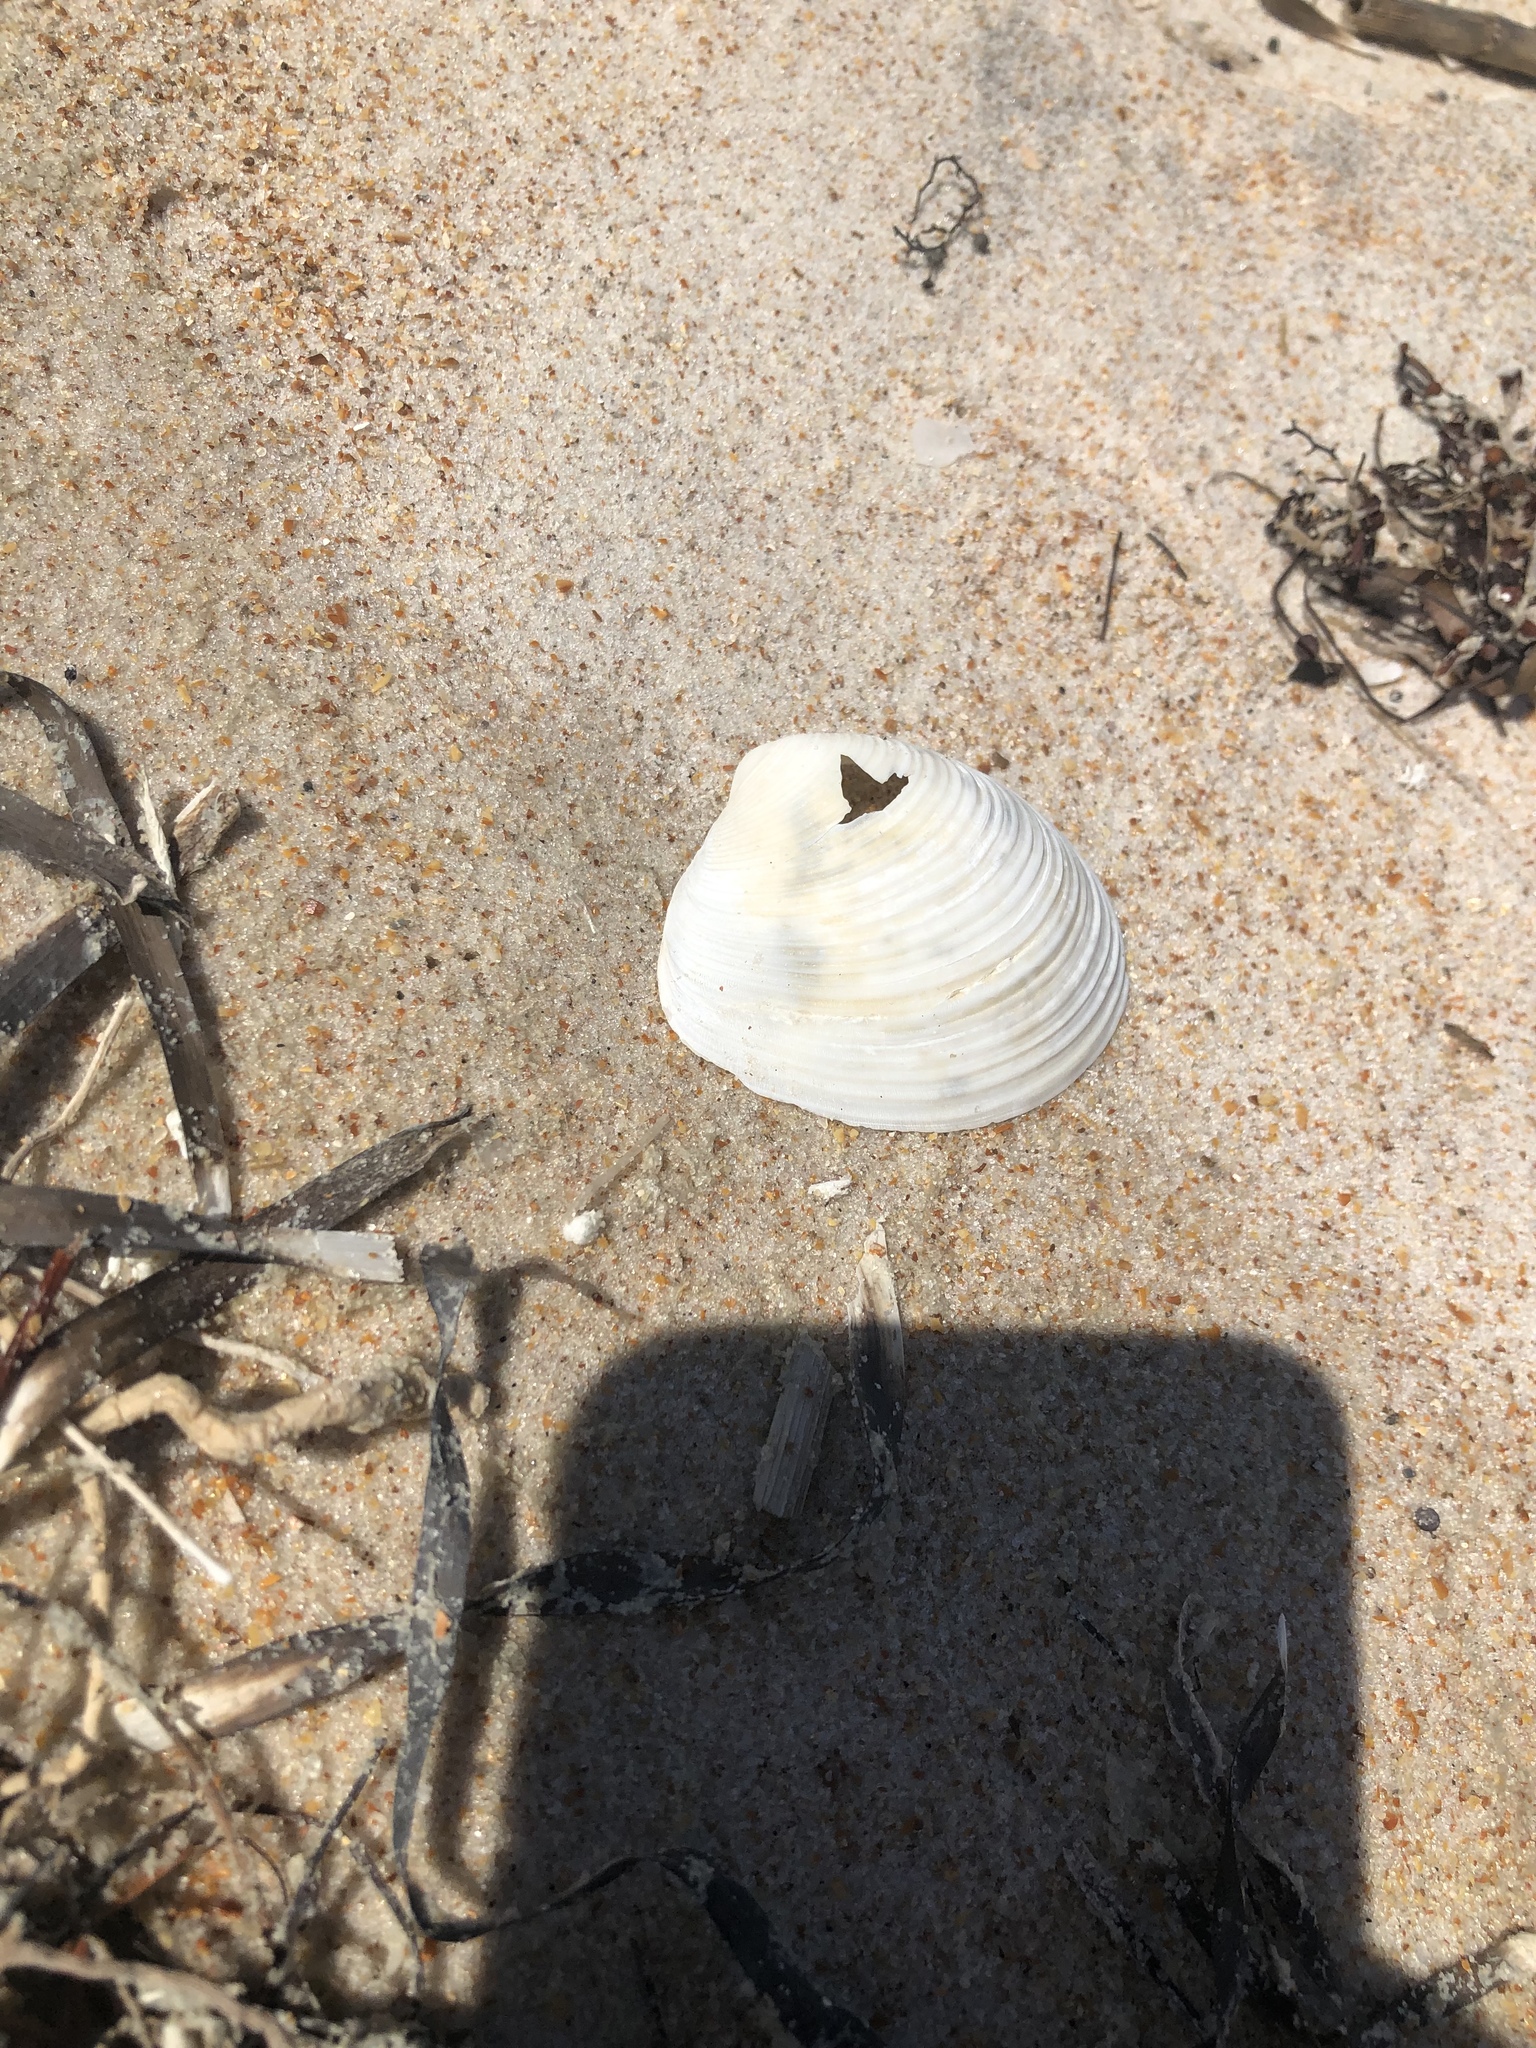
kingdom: Animalia
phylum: Mollusca
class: Bivalvia
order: Venerida
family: Anatinellidae
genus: Raeta
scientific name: Raeta plicatella
